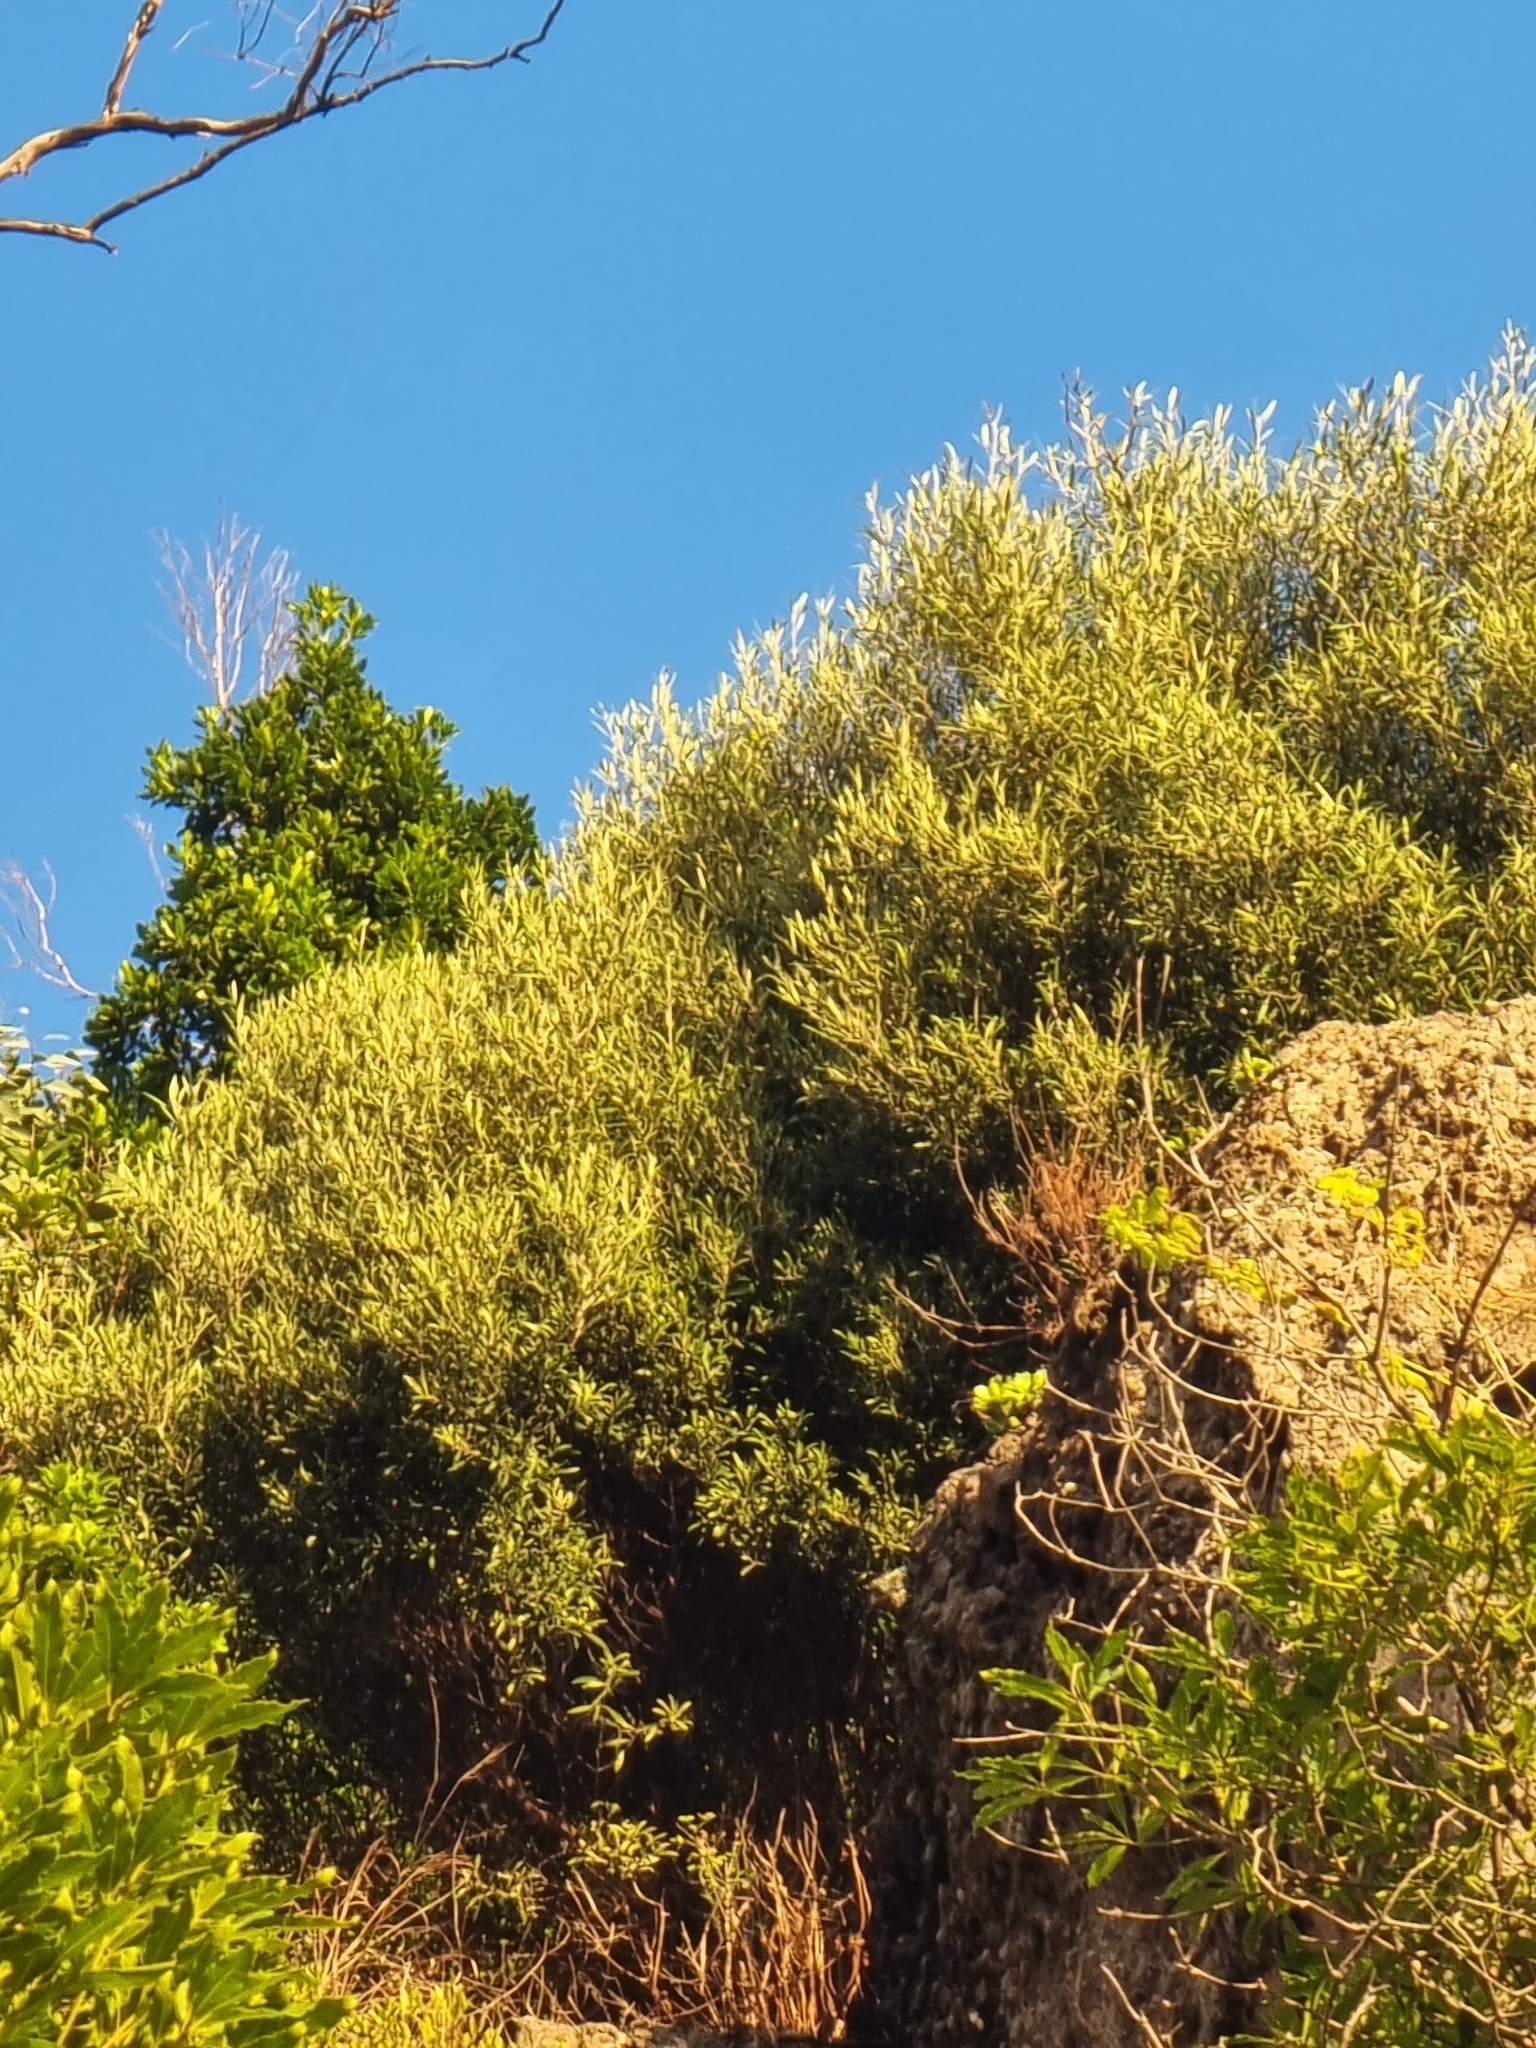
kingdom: Plantae
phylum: Tracheophyta
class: Magnoliopsida
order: Lamiales
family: Oleaceae
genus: Olea
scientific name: Olea europaea
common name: Olive
